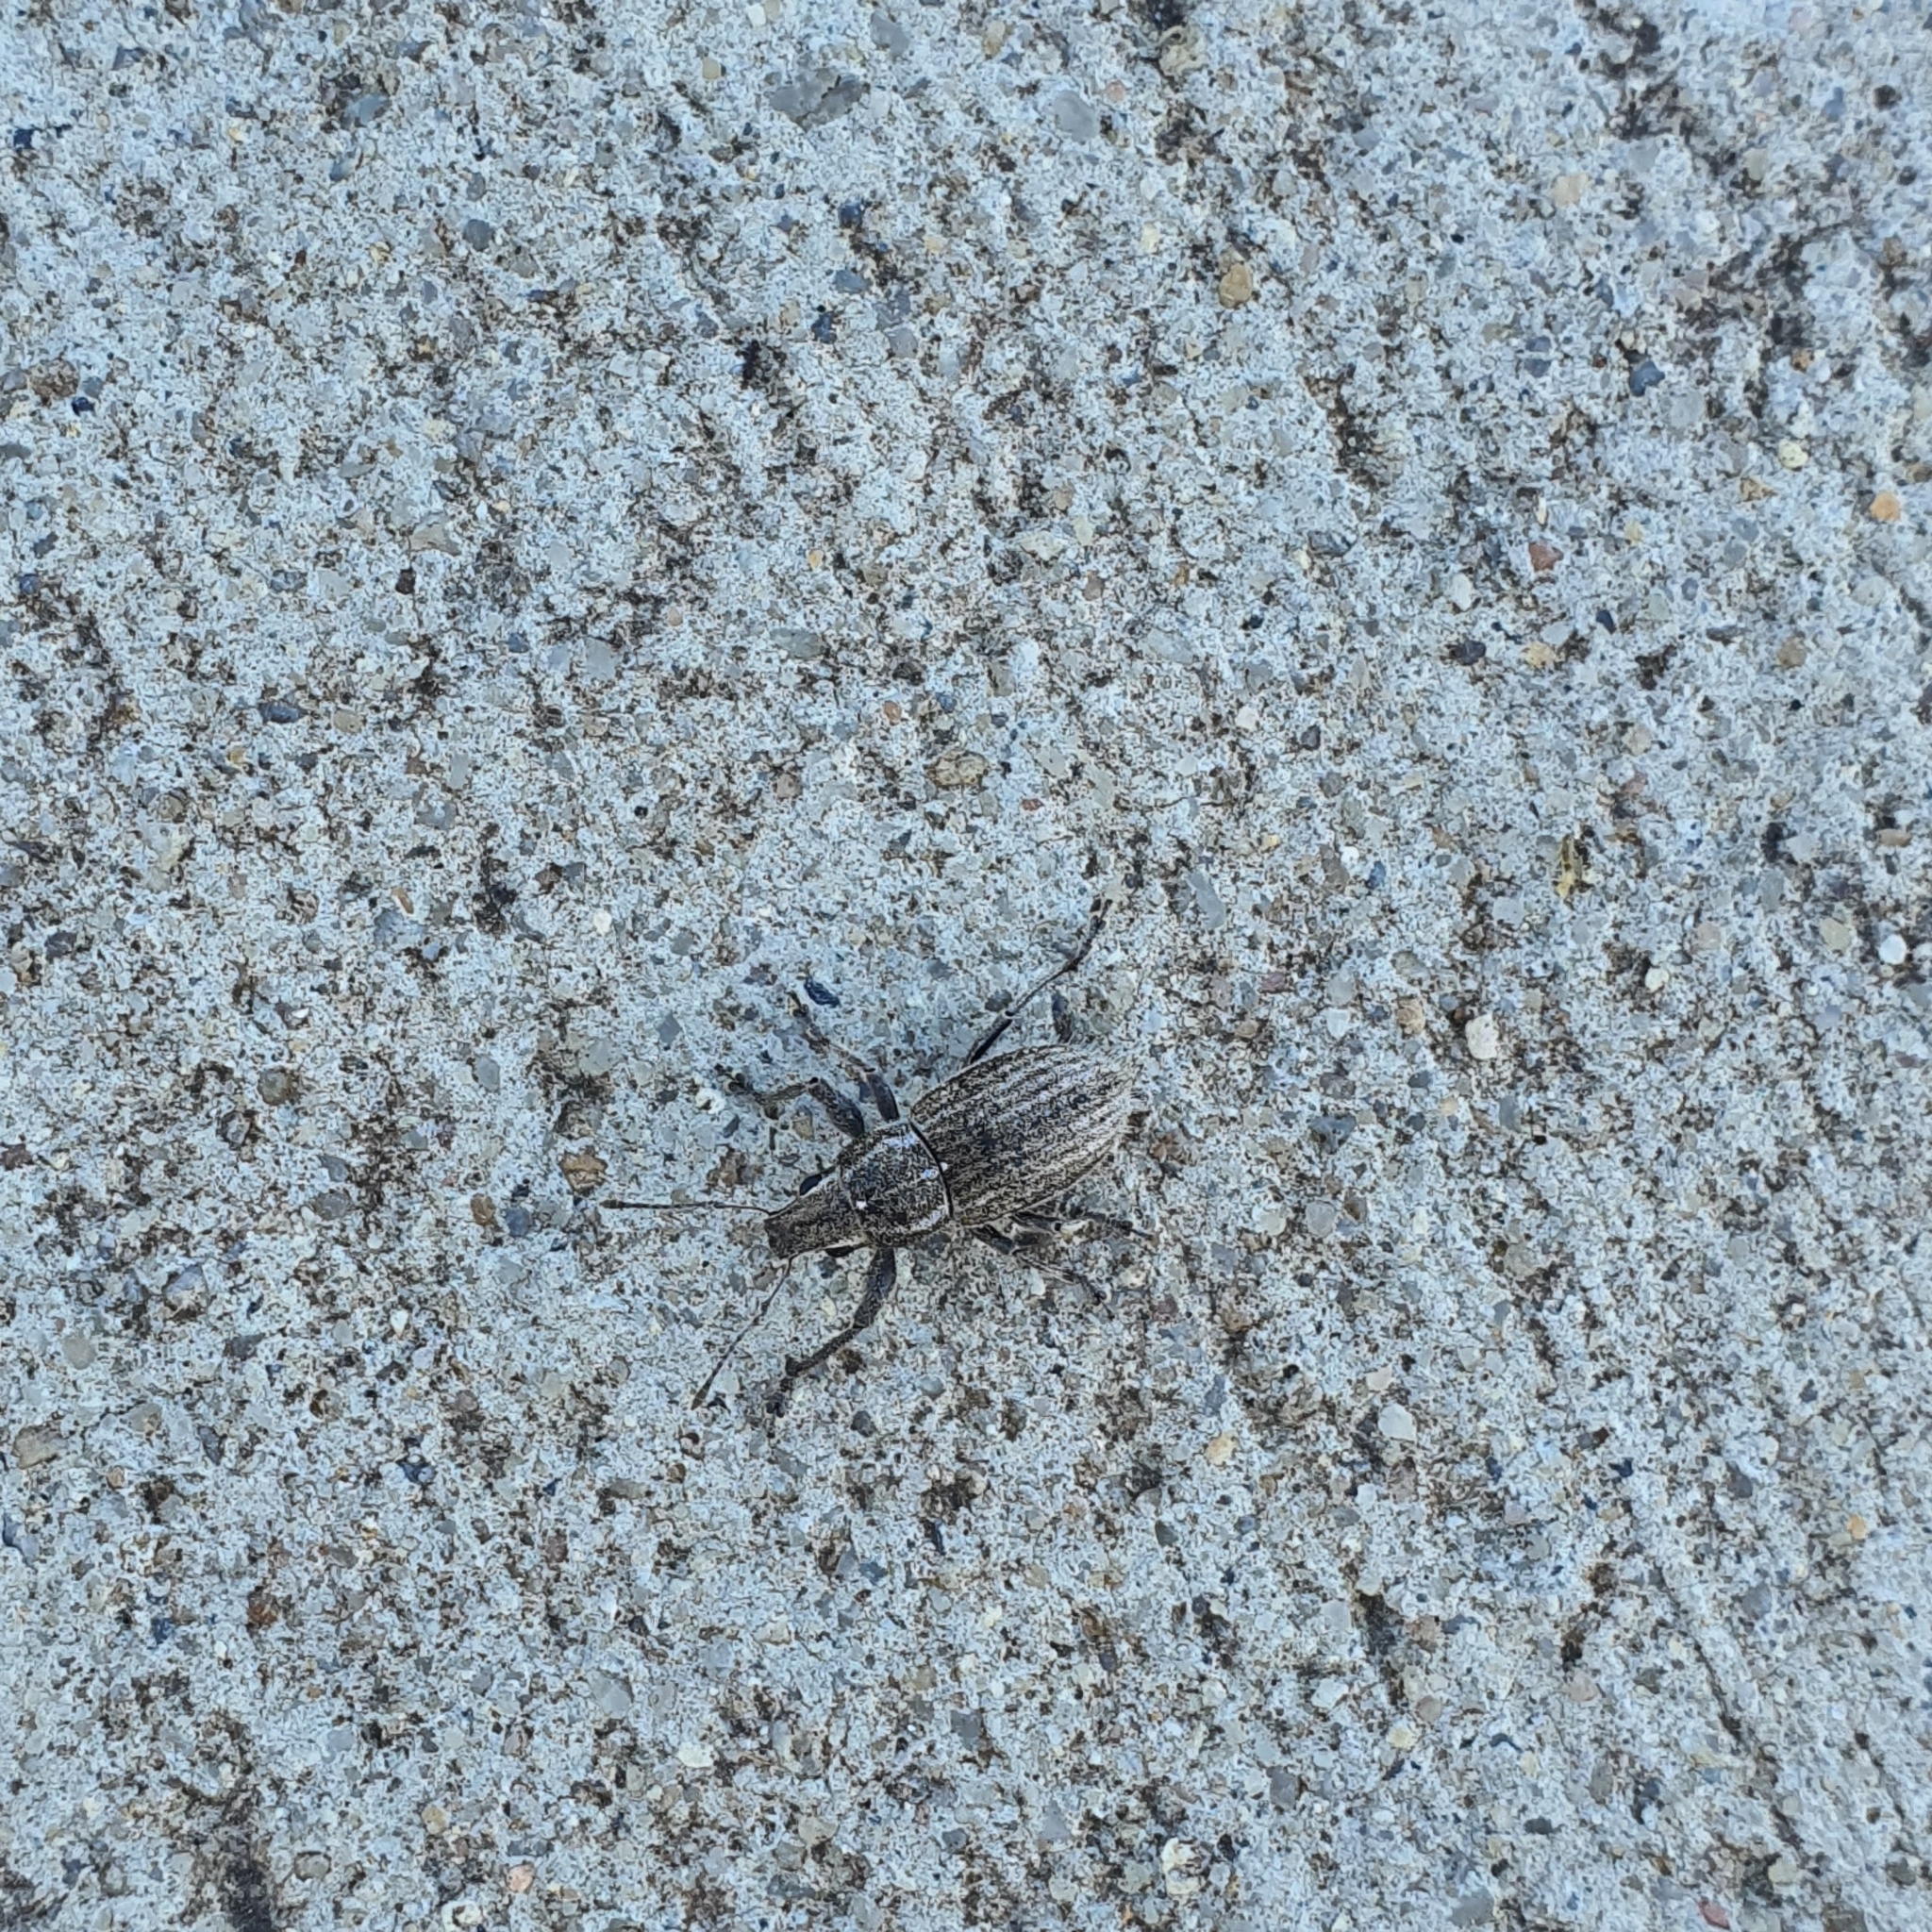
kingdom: Animalia
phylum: Arthropoda
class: Insecta
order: Coleoptera
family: Curculionidae
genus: Naupactus
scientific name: Naupactus leucoloma
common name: Whitefringed beetle
